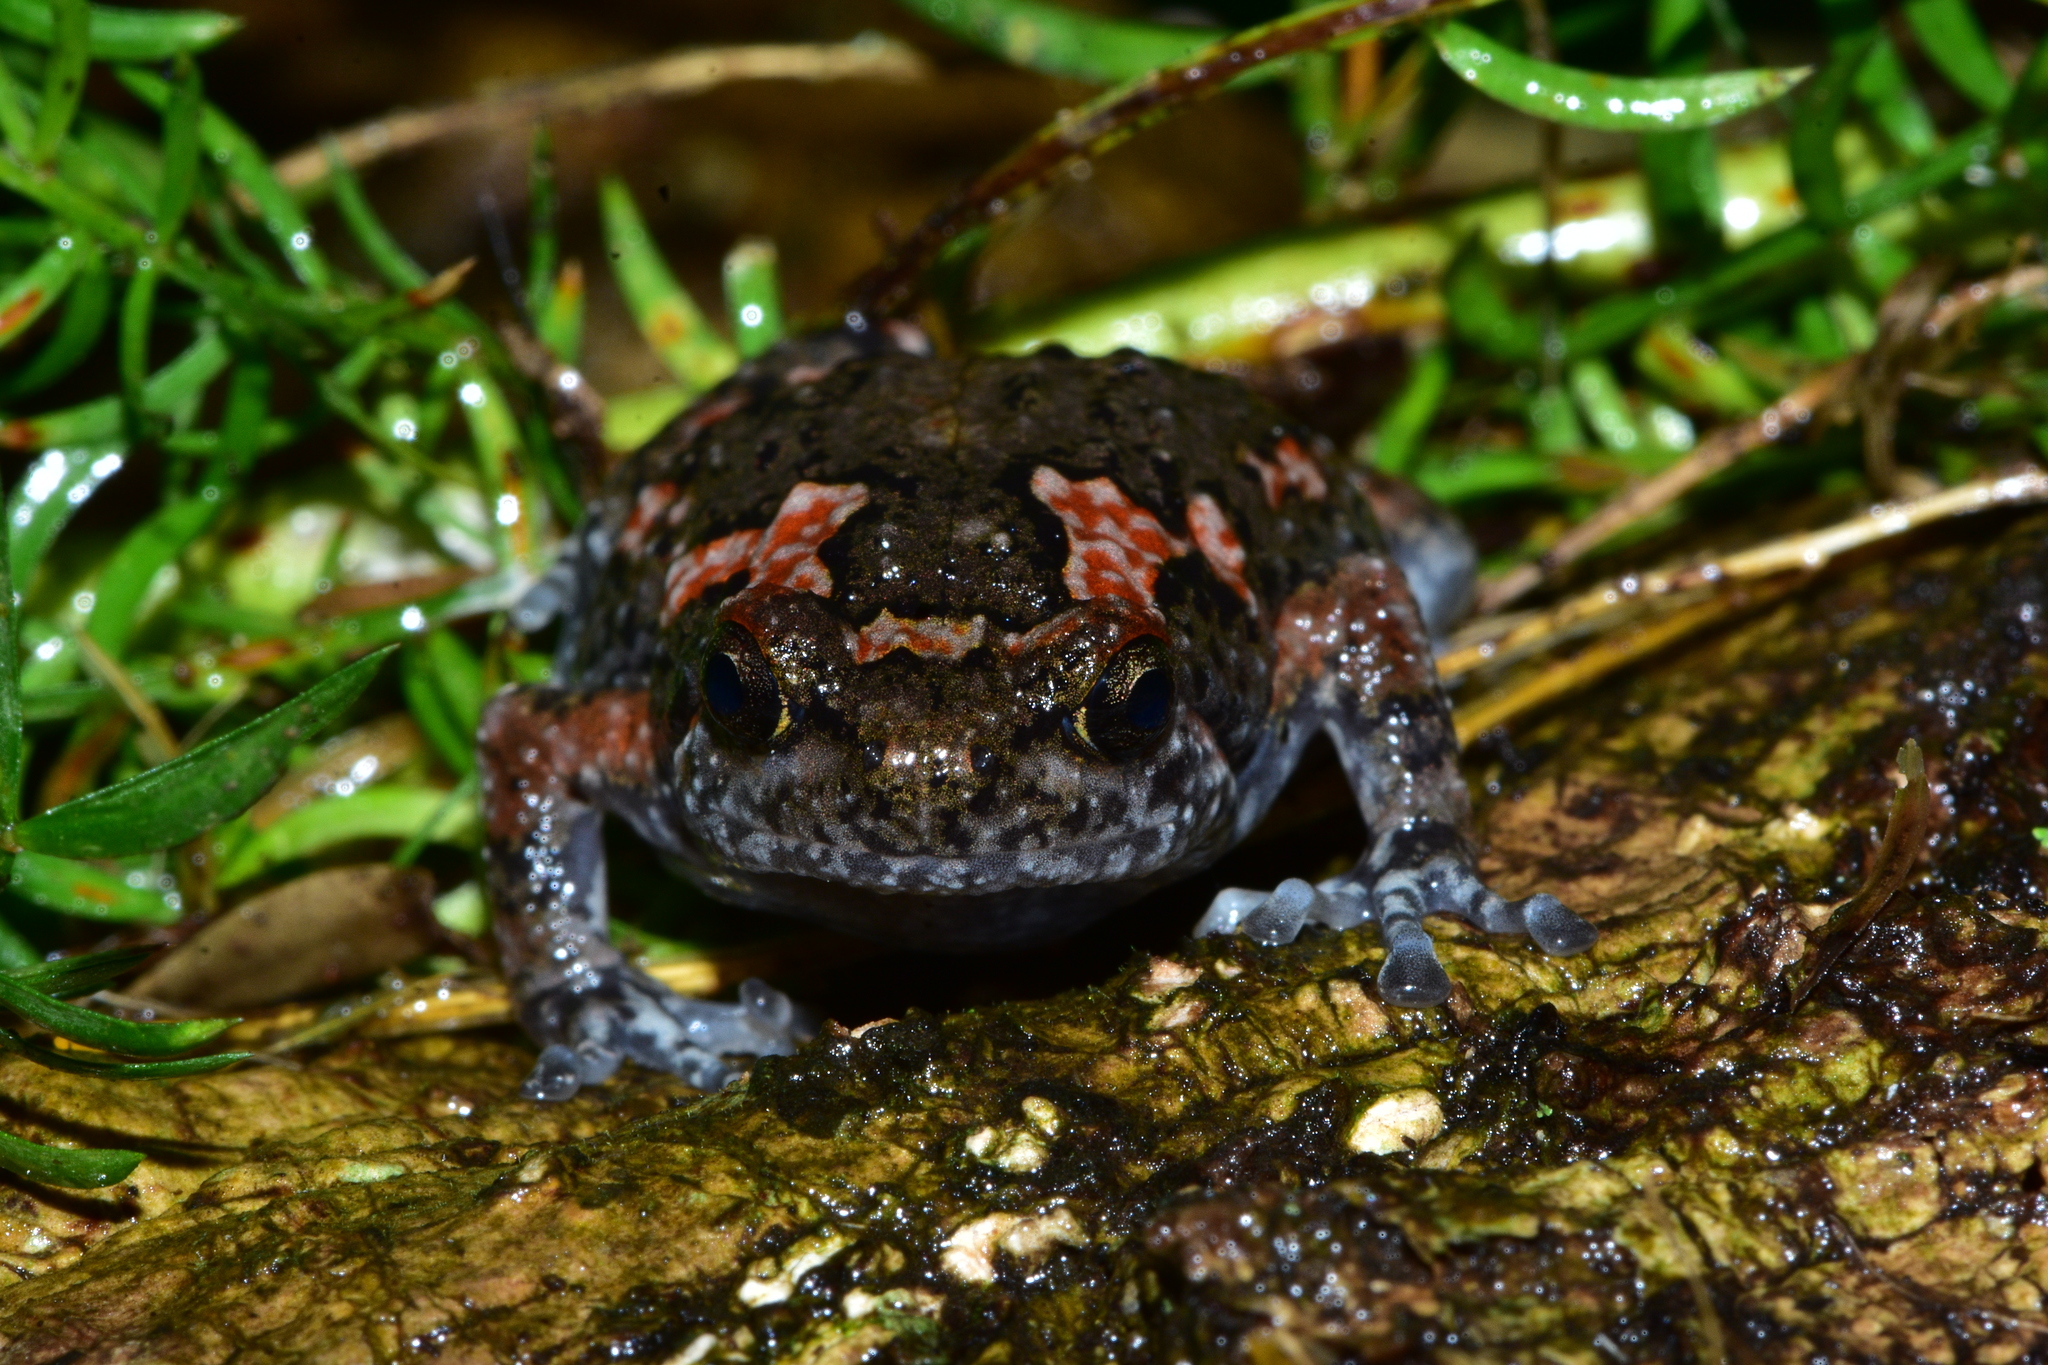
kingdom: Animalia
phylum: Chordata
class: Amphibia
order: Anura
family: Microhylidae
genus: Uperodon
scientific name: Uperodon taprobanicus
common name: Ceylon kaloula
